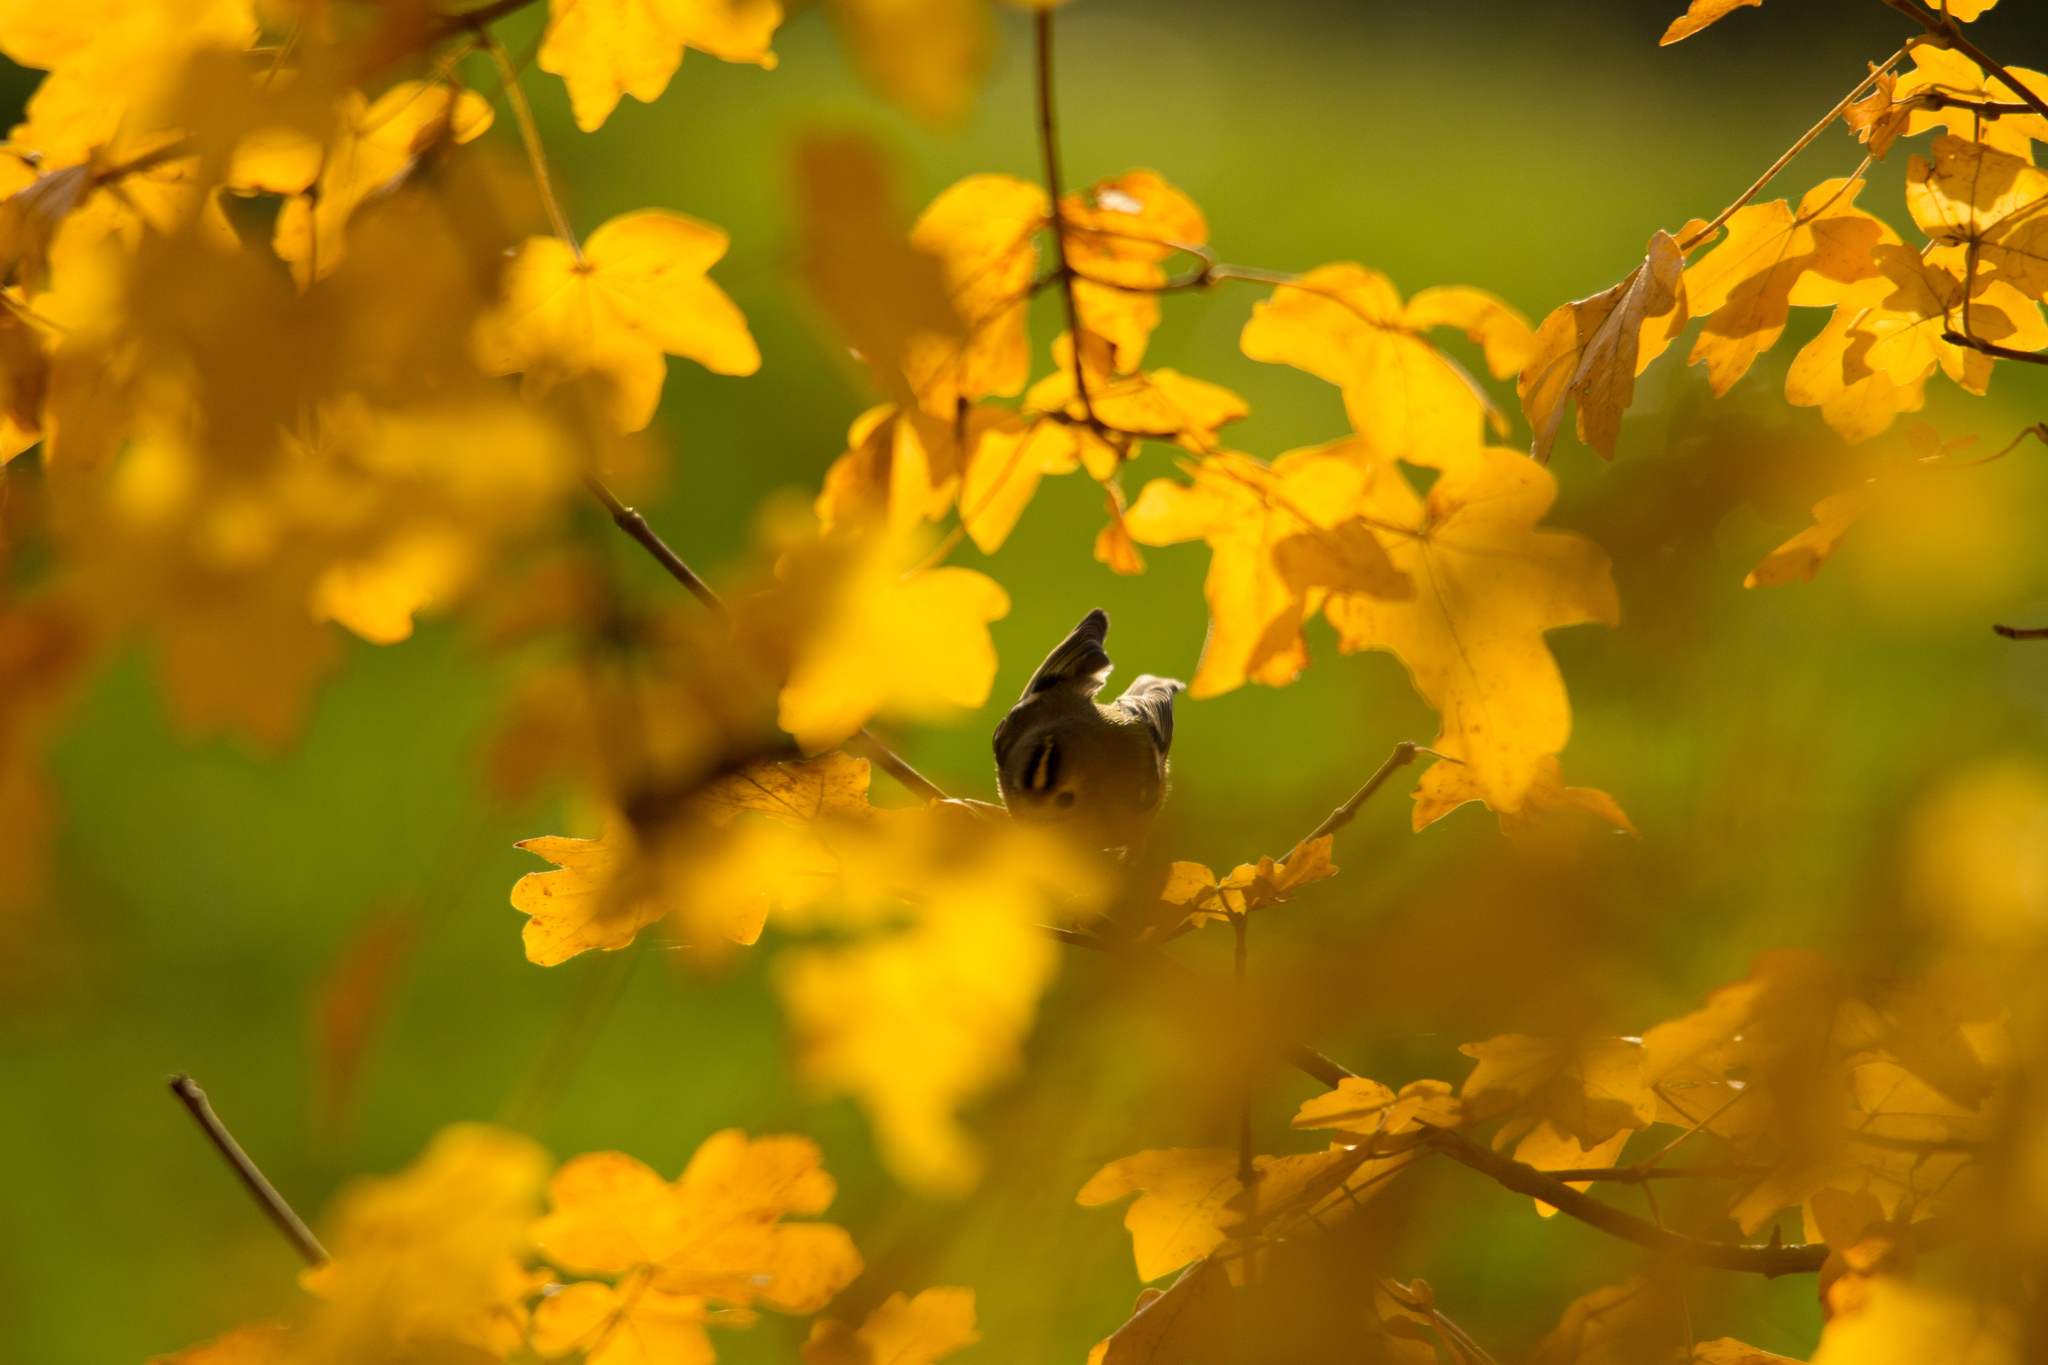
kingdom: Animalia
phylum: Chordata
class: Aves
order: Passeriformes
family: Regulidae
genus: Regulus
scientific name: Regulus regulus
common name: Goldcrest
